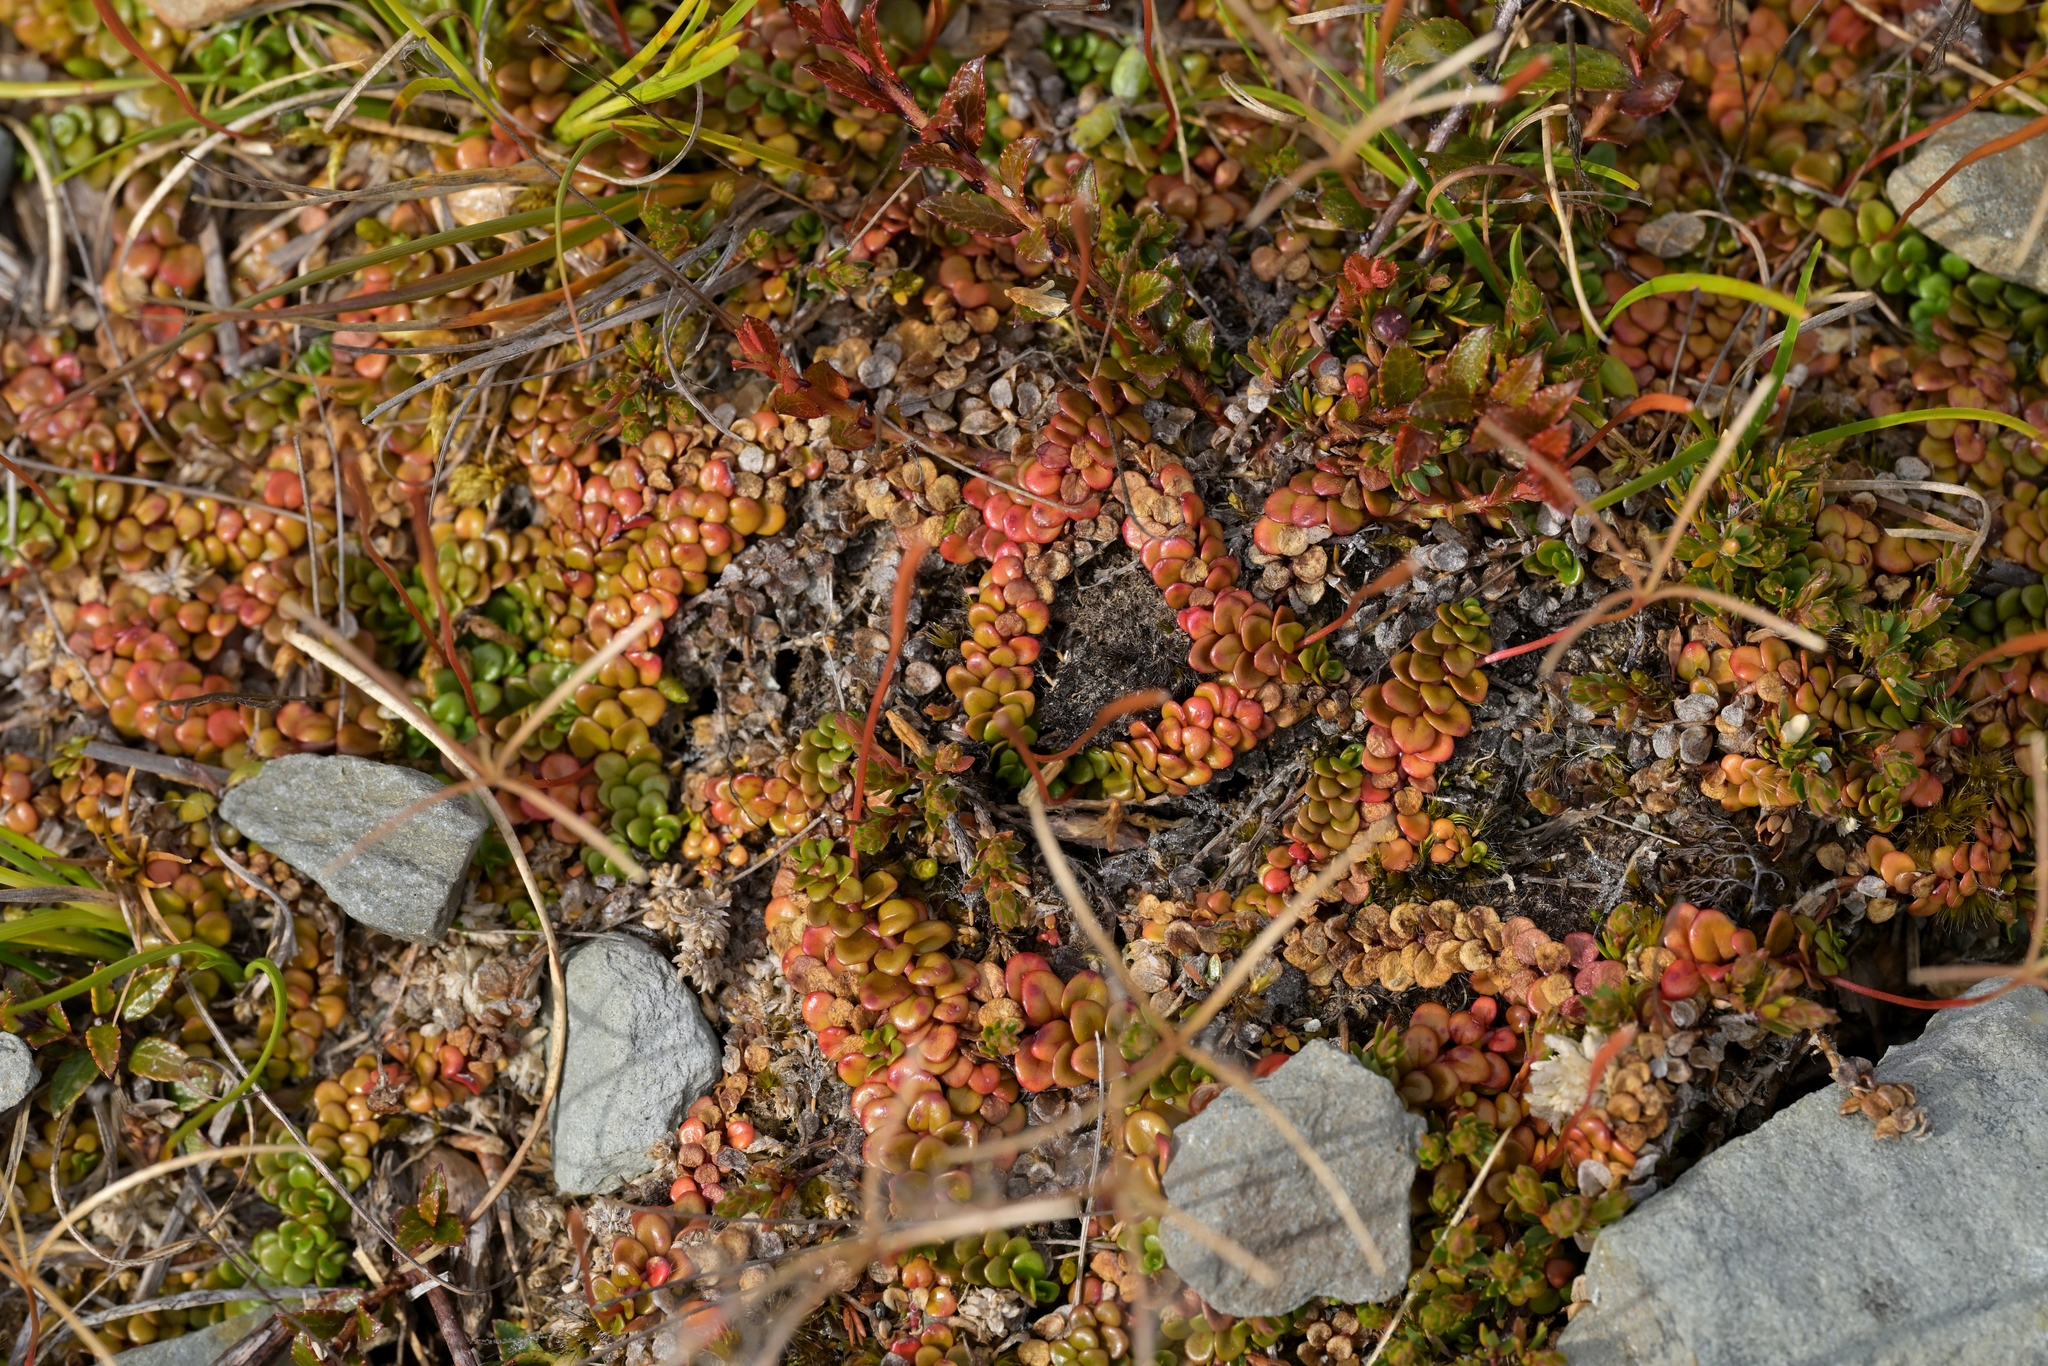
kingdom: Plantae
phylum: Tracheophyta
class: Magnoliopsida
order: Myrtales
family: Onagraceae
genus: Epilobium
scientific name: Epilobium pernitens
